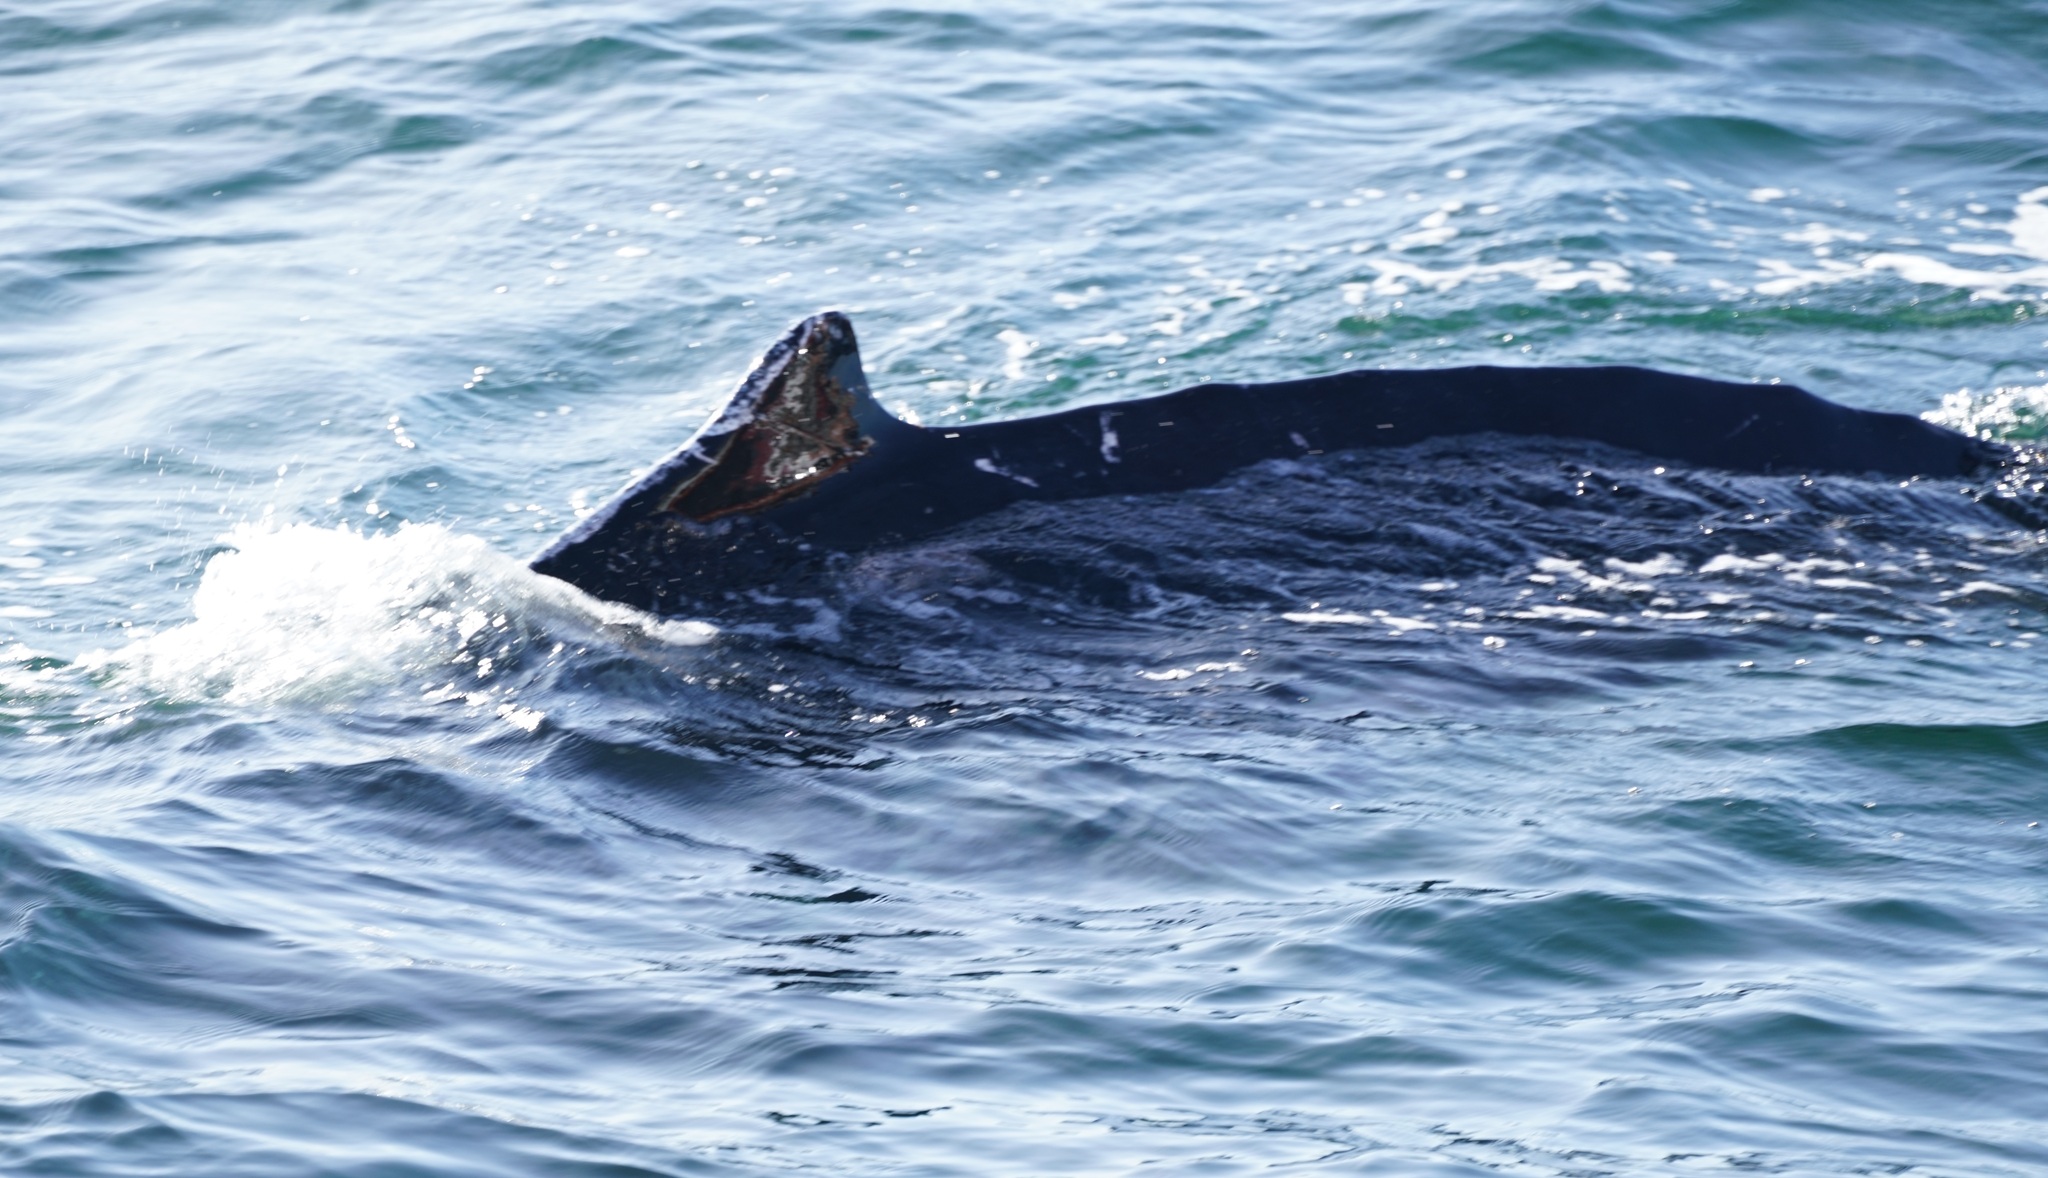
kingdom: Animalia
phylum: Chordata
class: Mammalia
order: Cetacea
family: Balaenopteridae
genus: Megaptera
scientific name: Megaptera novaeangliae
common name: Humpback whale
